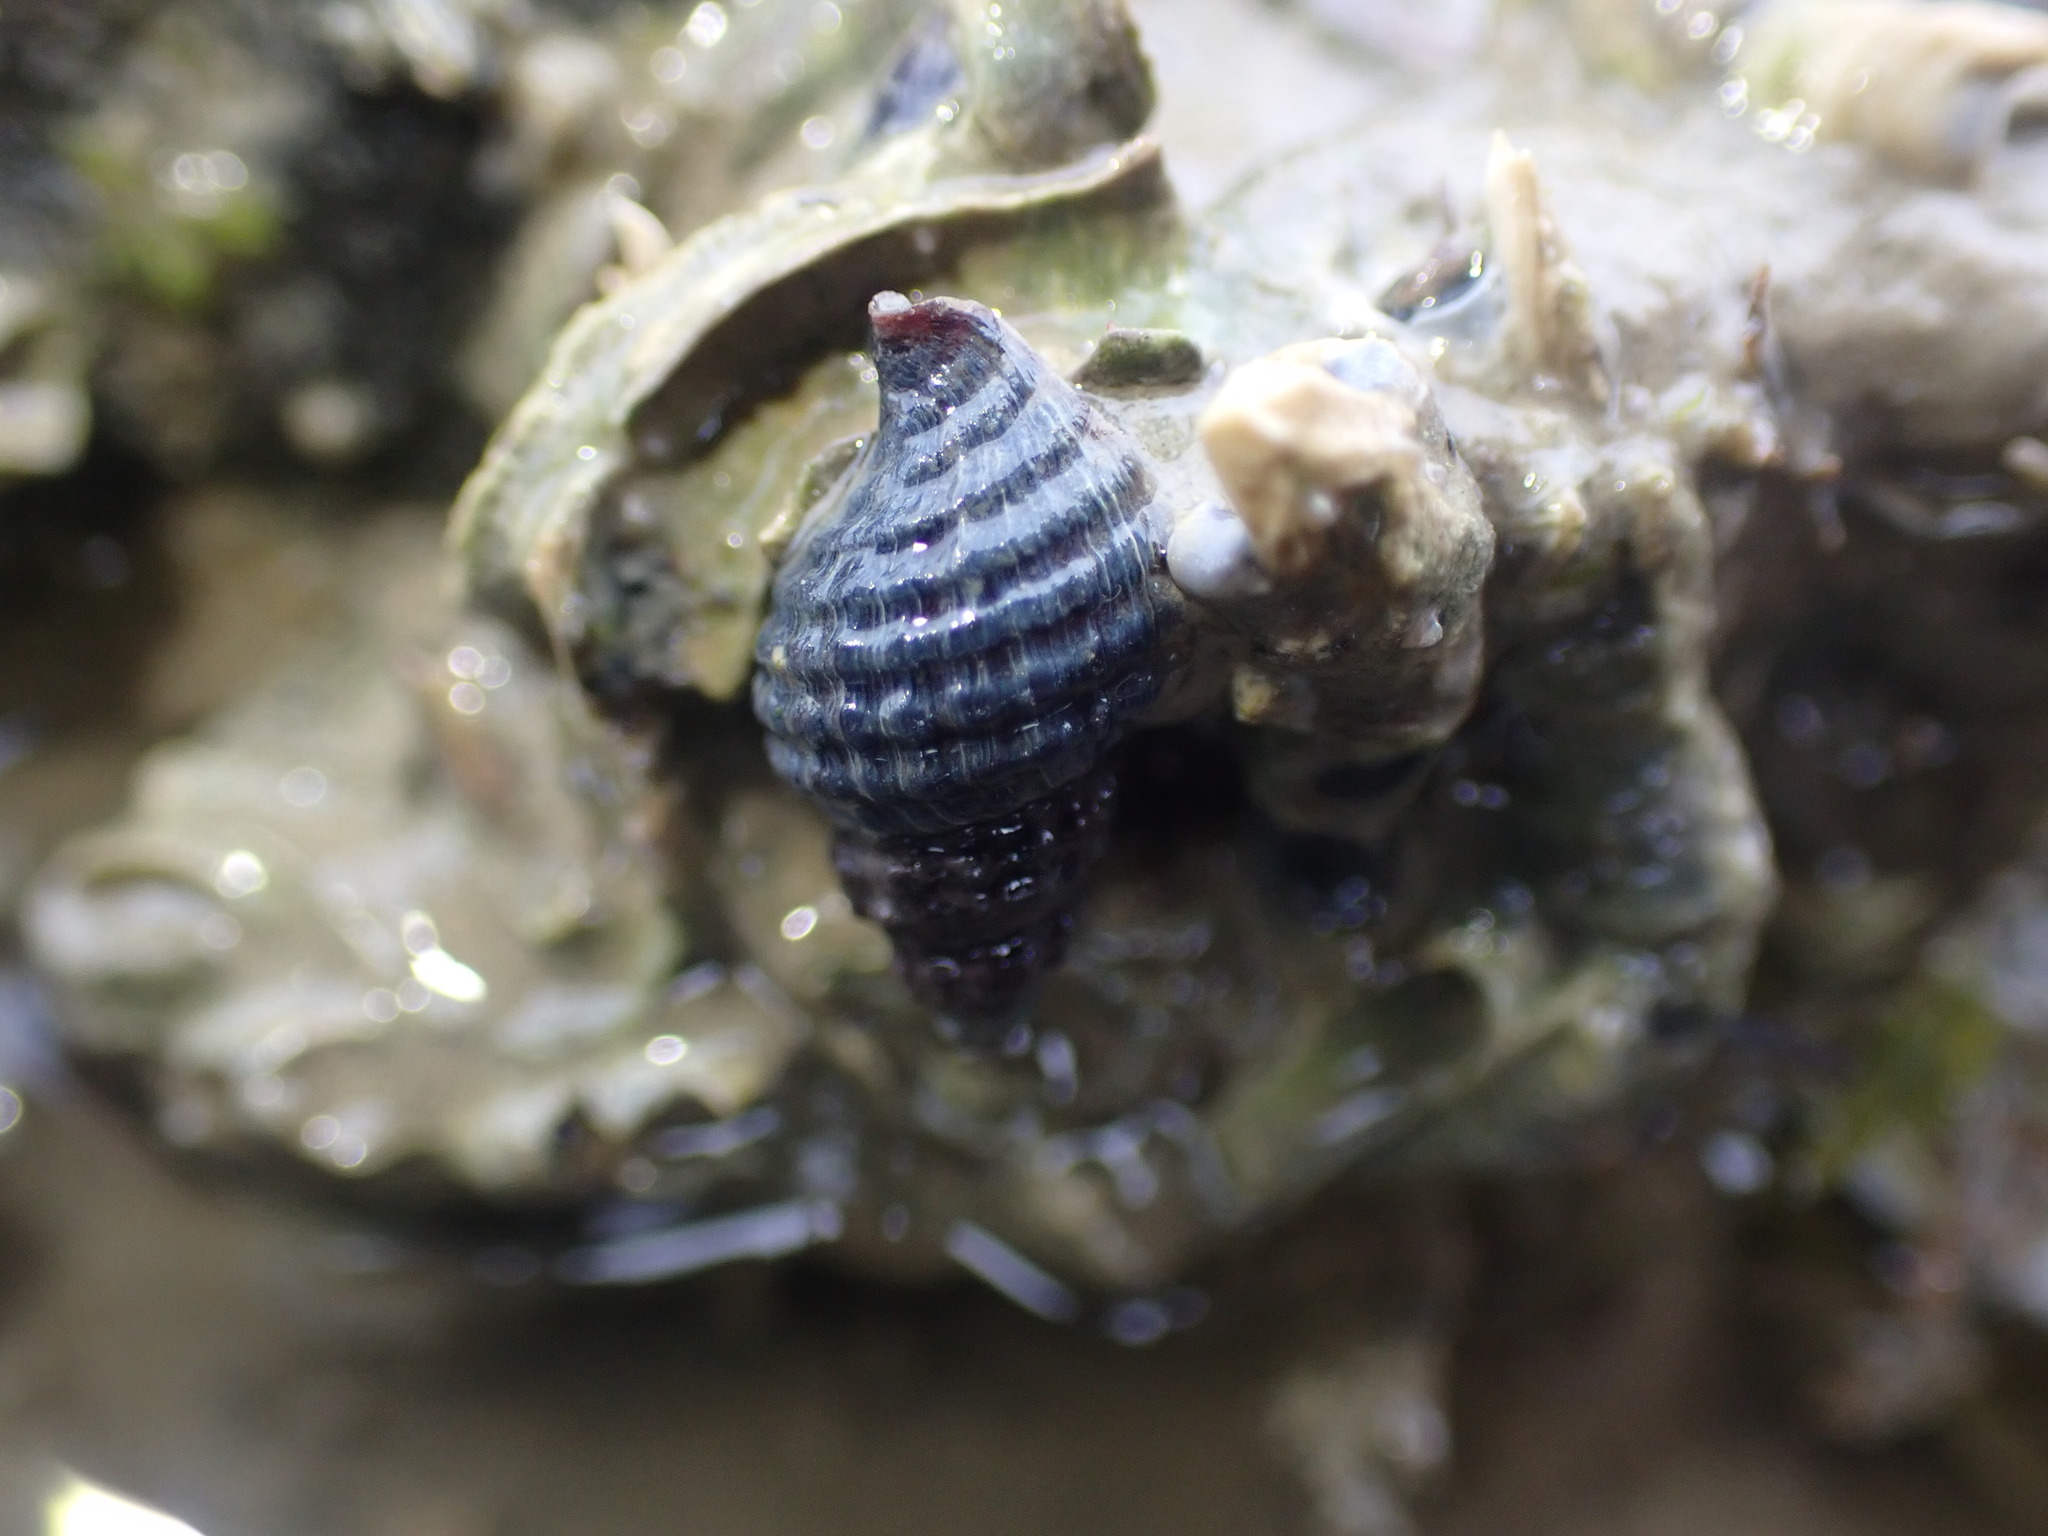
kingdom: Animalia
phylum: Mollusca
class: Gastropoda
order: Neogastropoda
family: Muricidae
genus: Xymene
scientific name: Xymene plebeius
